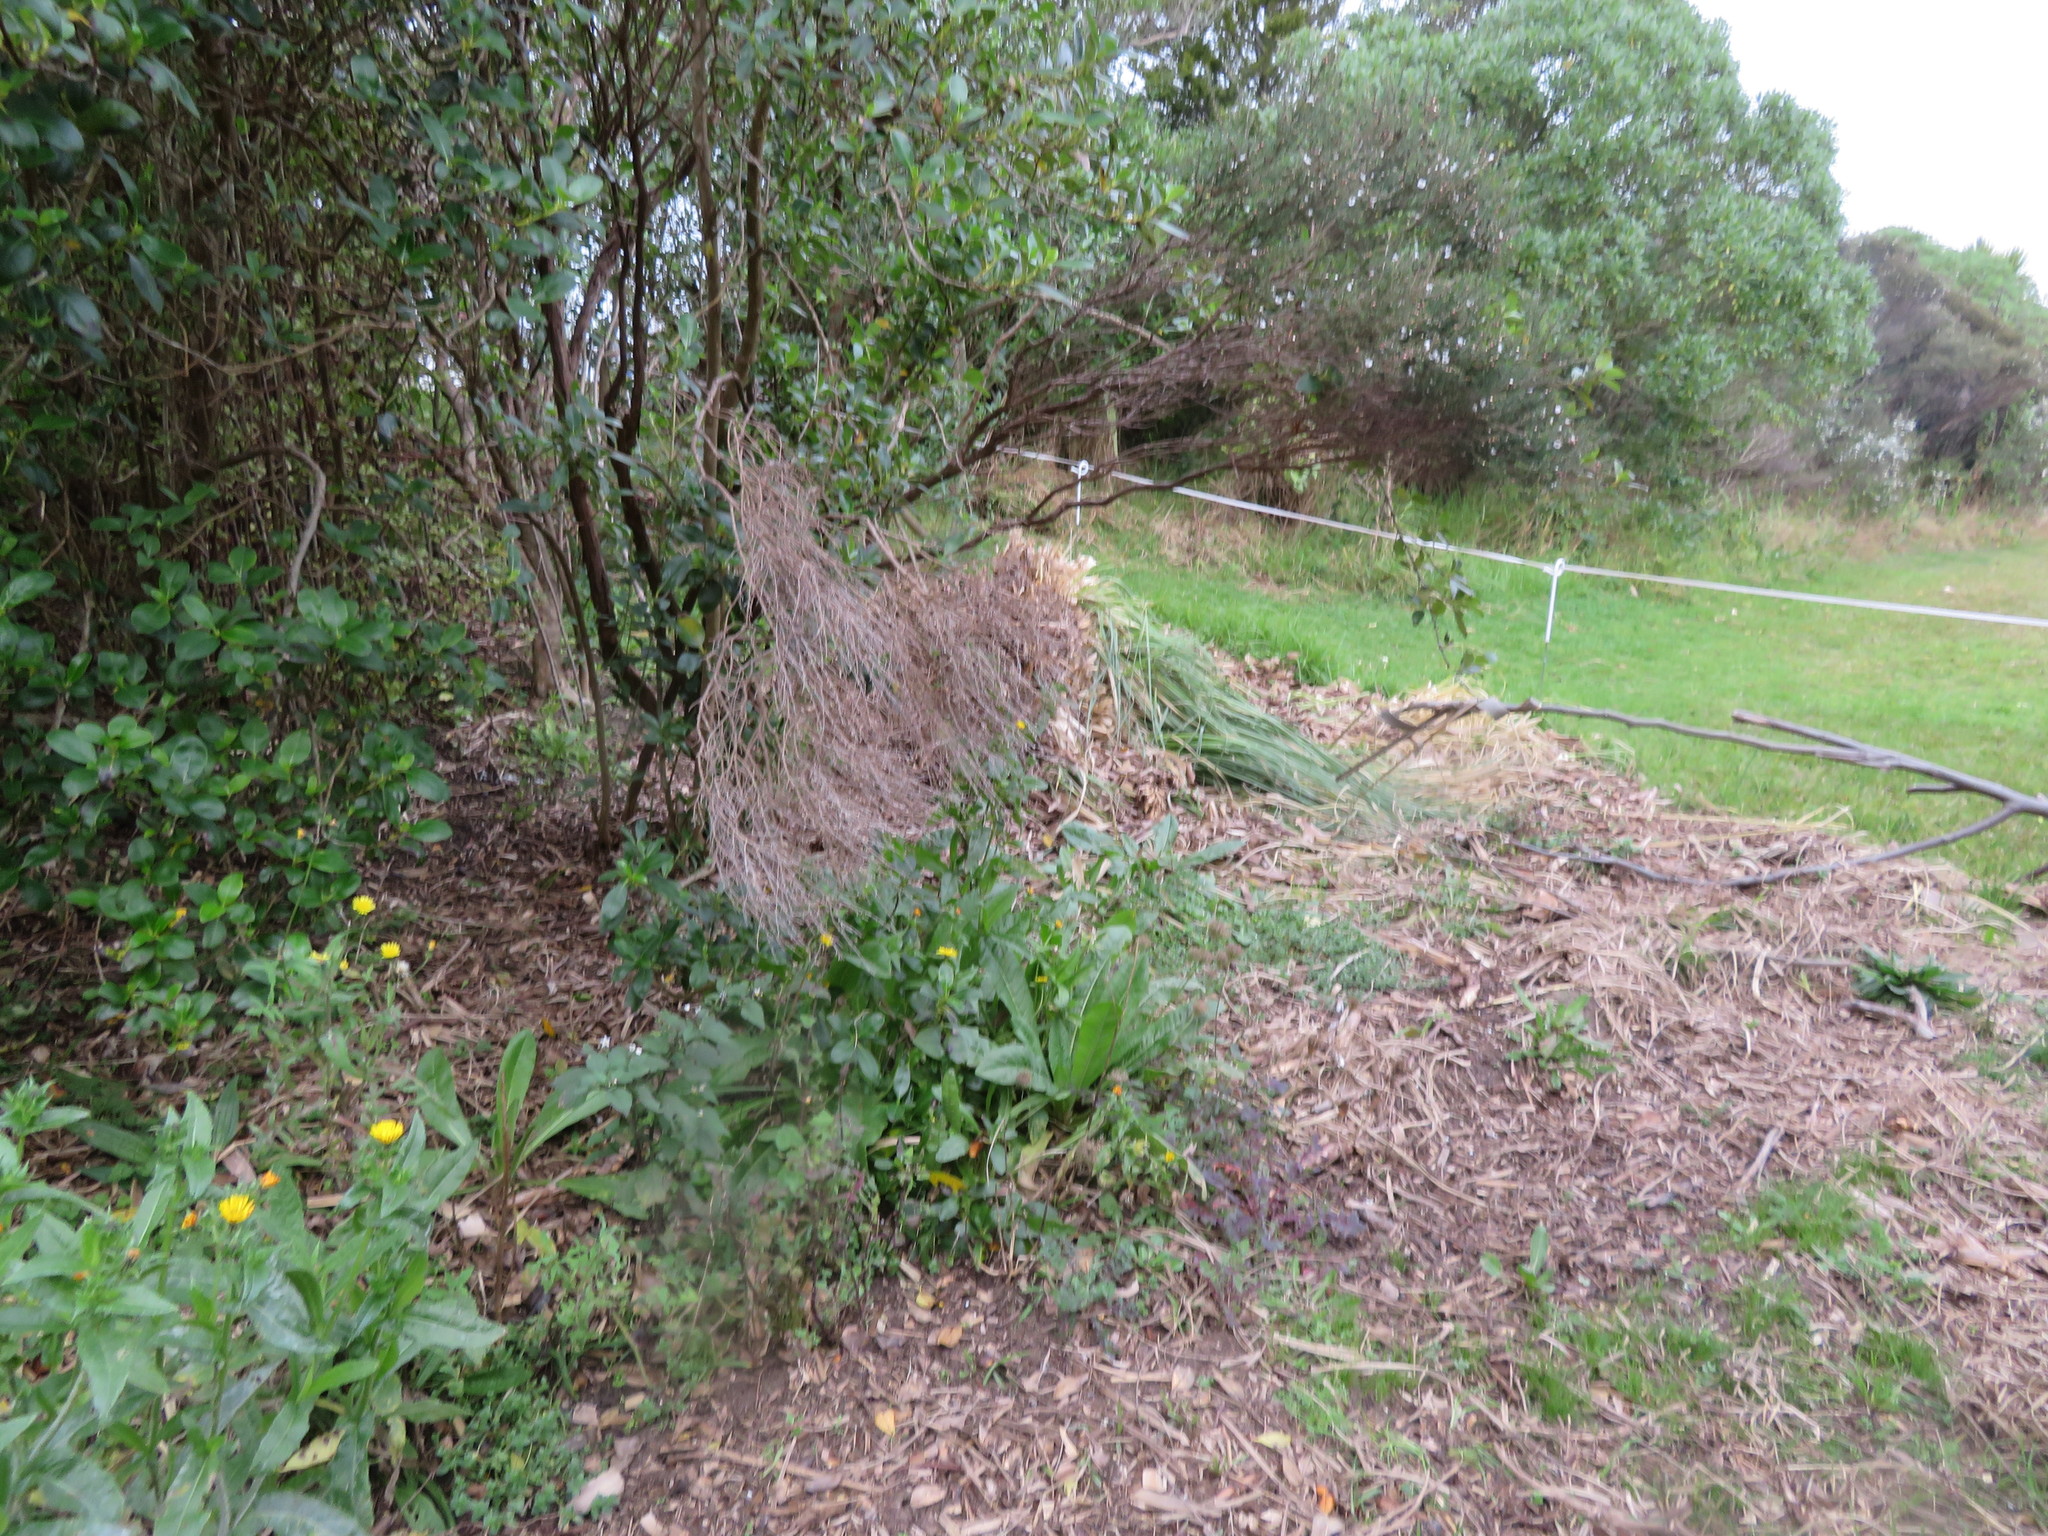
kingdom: Plantae
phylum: Tracheophyta
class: Magnoliopsida
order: Asterales
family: Asteraceae
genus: Helminthotheca
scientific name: Helminthotheca echioides
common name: Ox-tongue
